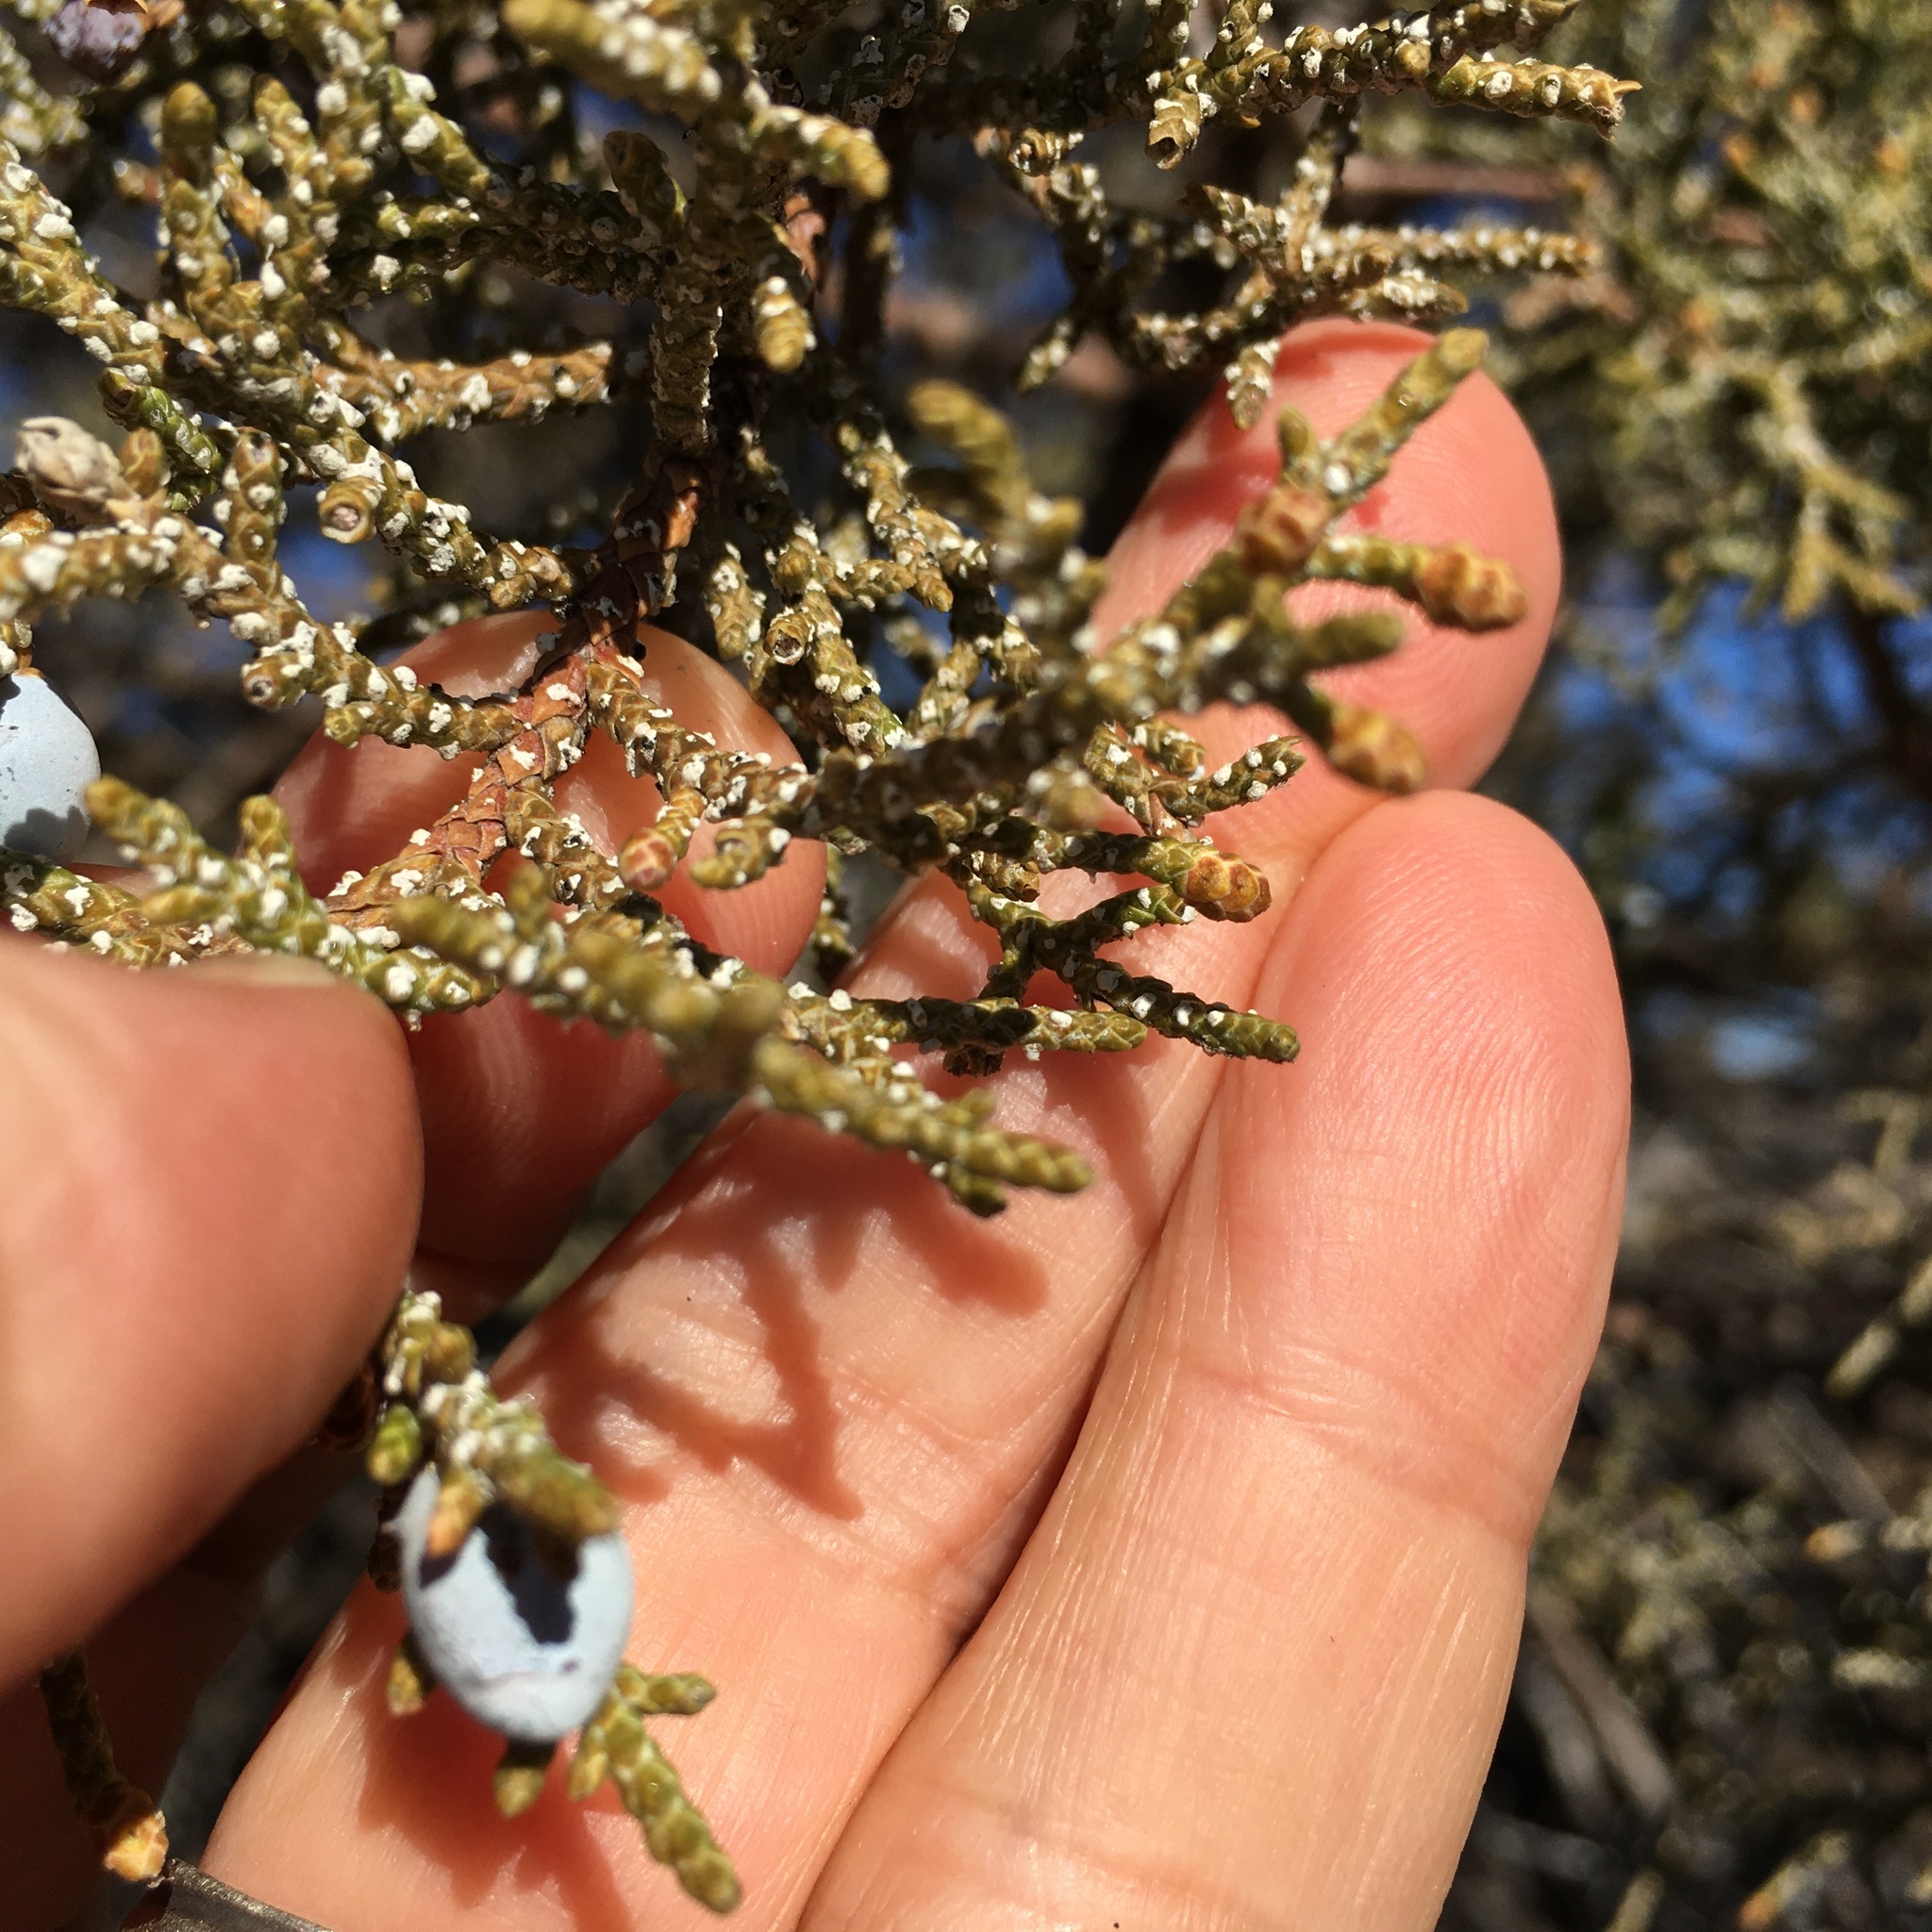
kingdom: Plantae
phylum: Tracheophyta
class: Pinopsida
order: Pinales
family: Cupressaceae
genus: Juniperus
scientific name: Juniperus occidentalis
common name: Western juniper
